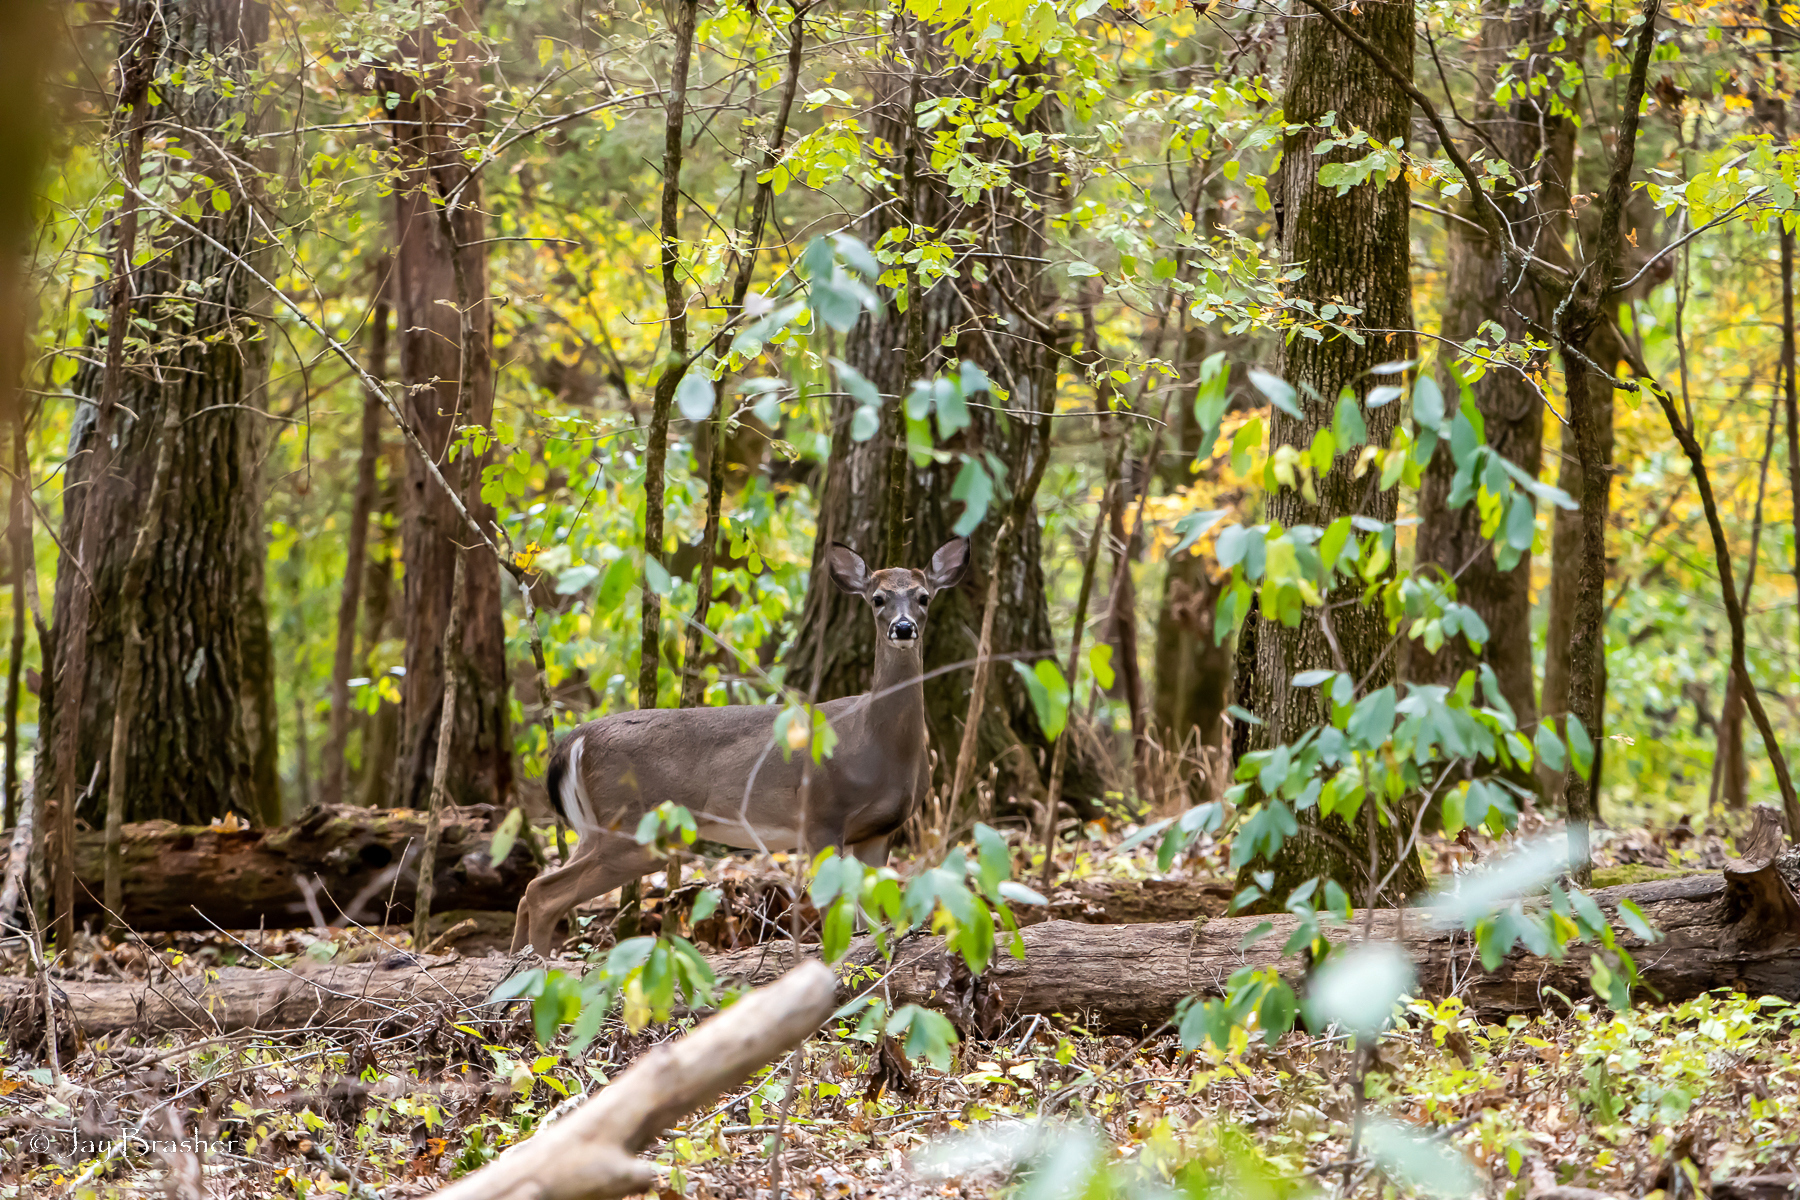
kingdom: Animalia
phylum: Chordata
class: Mammalia
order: Artiodactyla
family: Cervidae
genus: Odocoileus
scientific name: Odocoileus virginianus
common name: White-tailed deer
